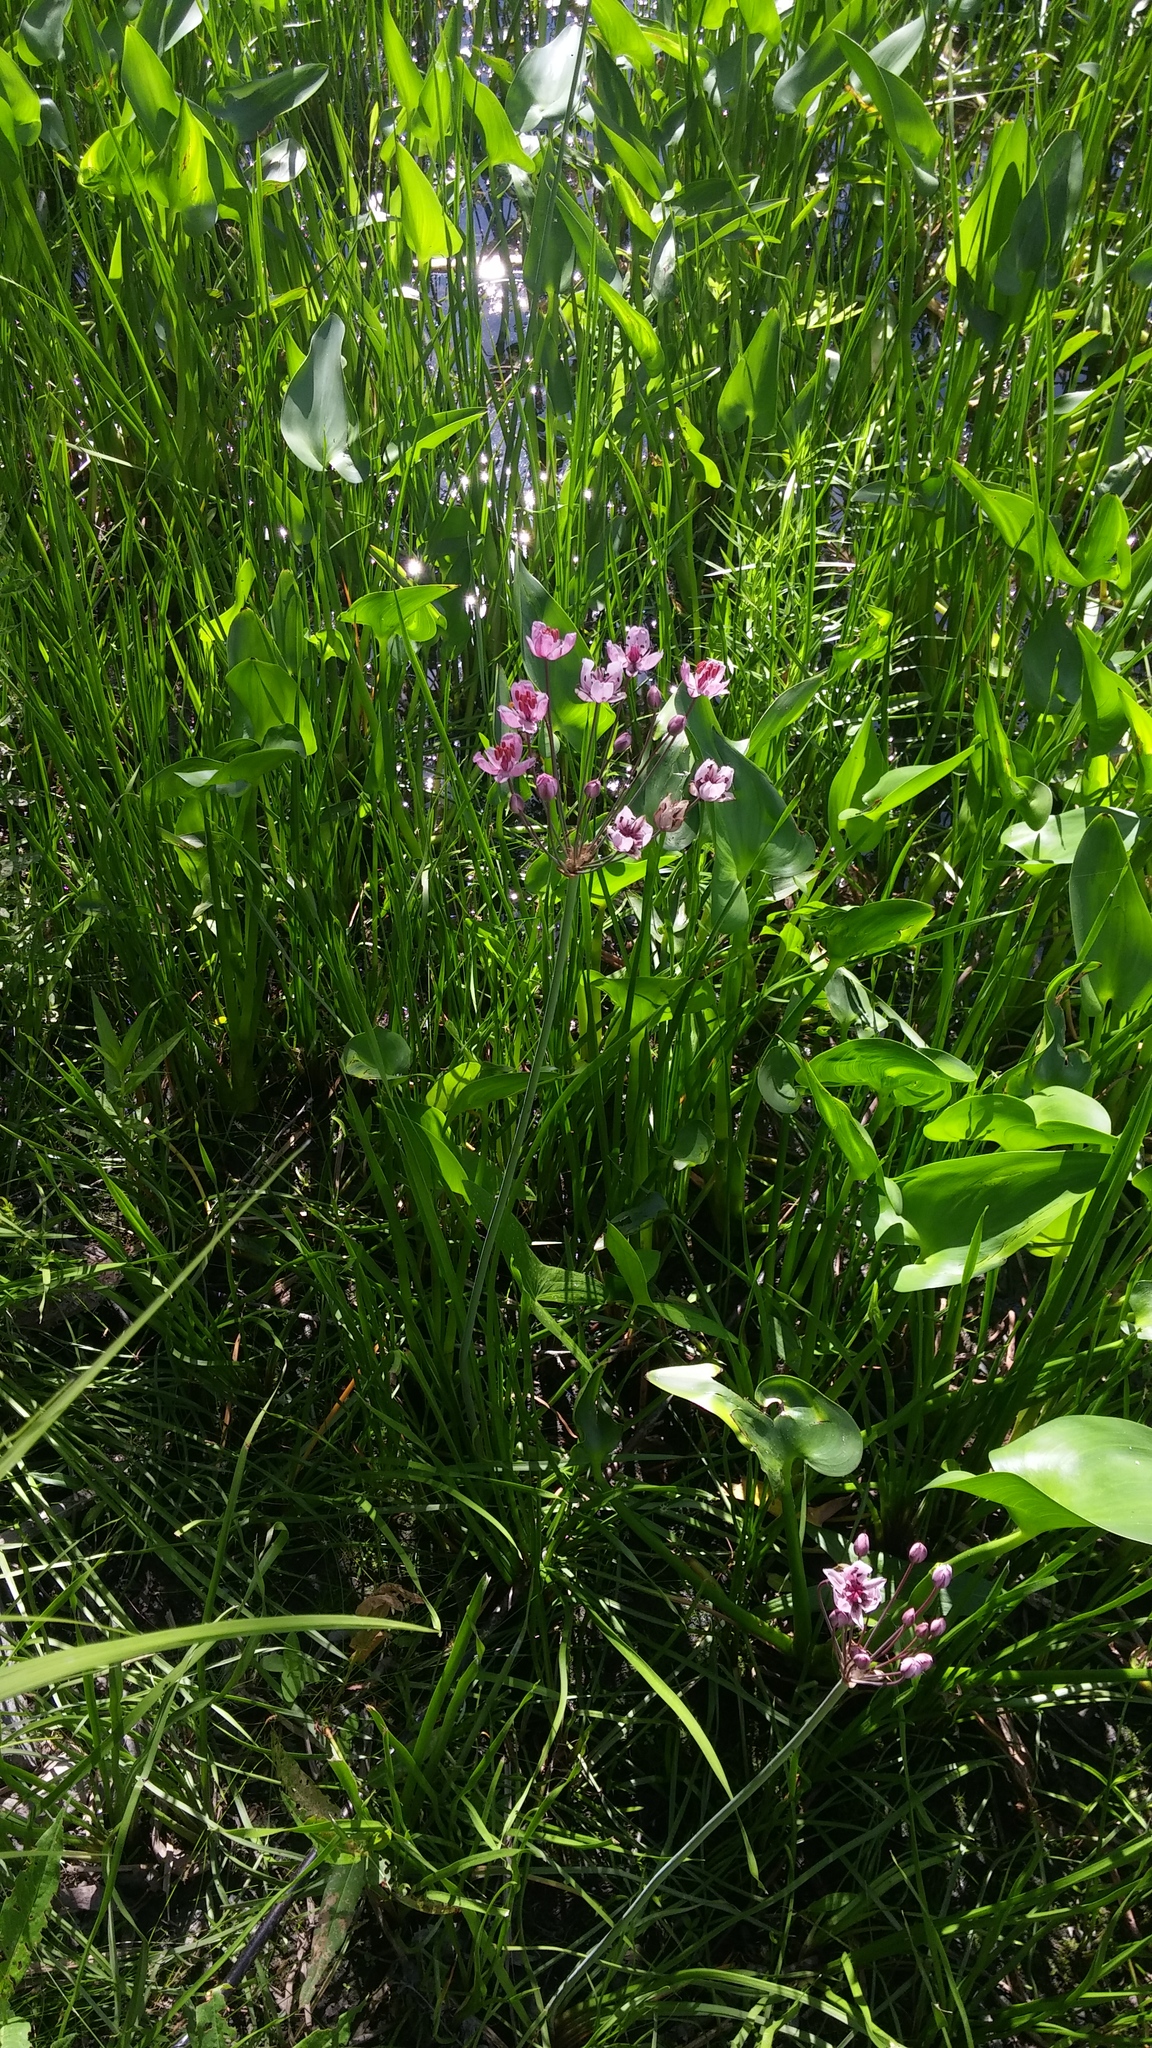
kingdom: Plantae
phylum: Tracheophyta
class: Liliopsida
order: Alismatales
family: Butomaceae
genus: Butomus
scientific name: Butomus umbellatus
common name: Flowering-rush
